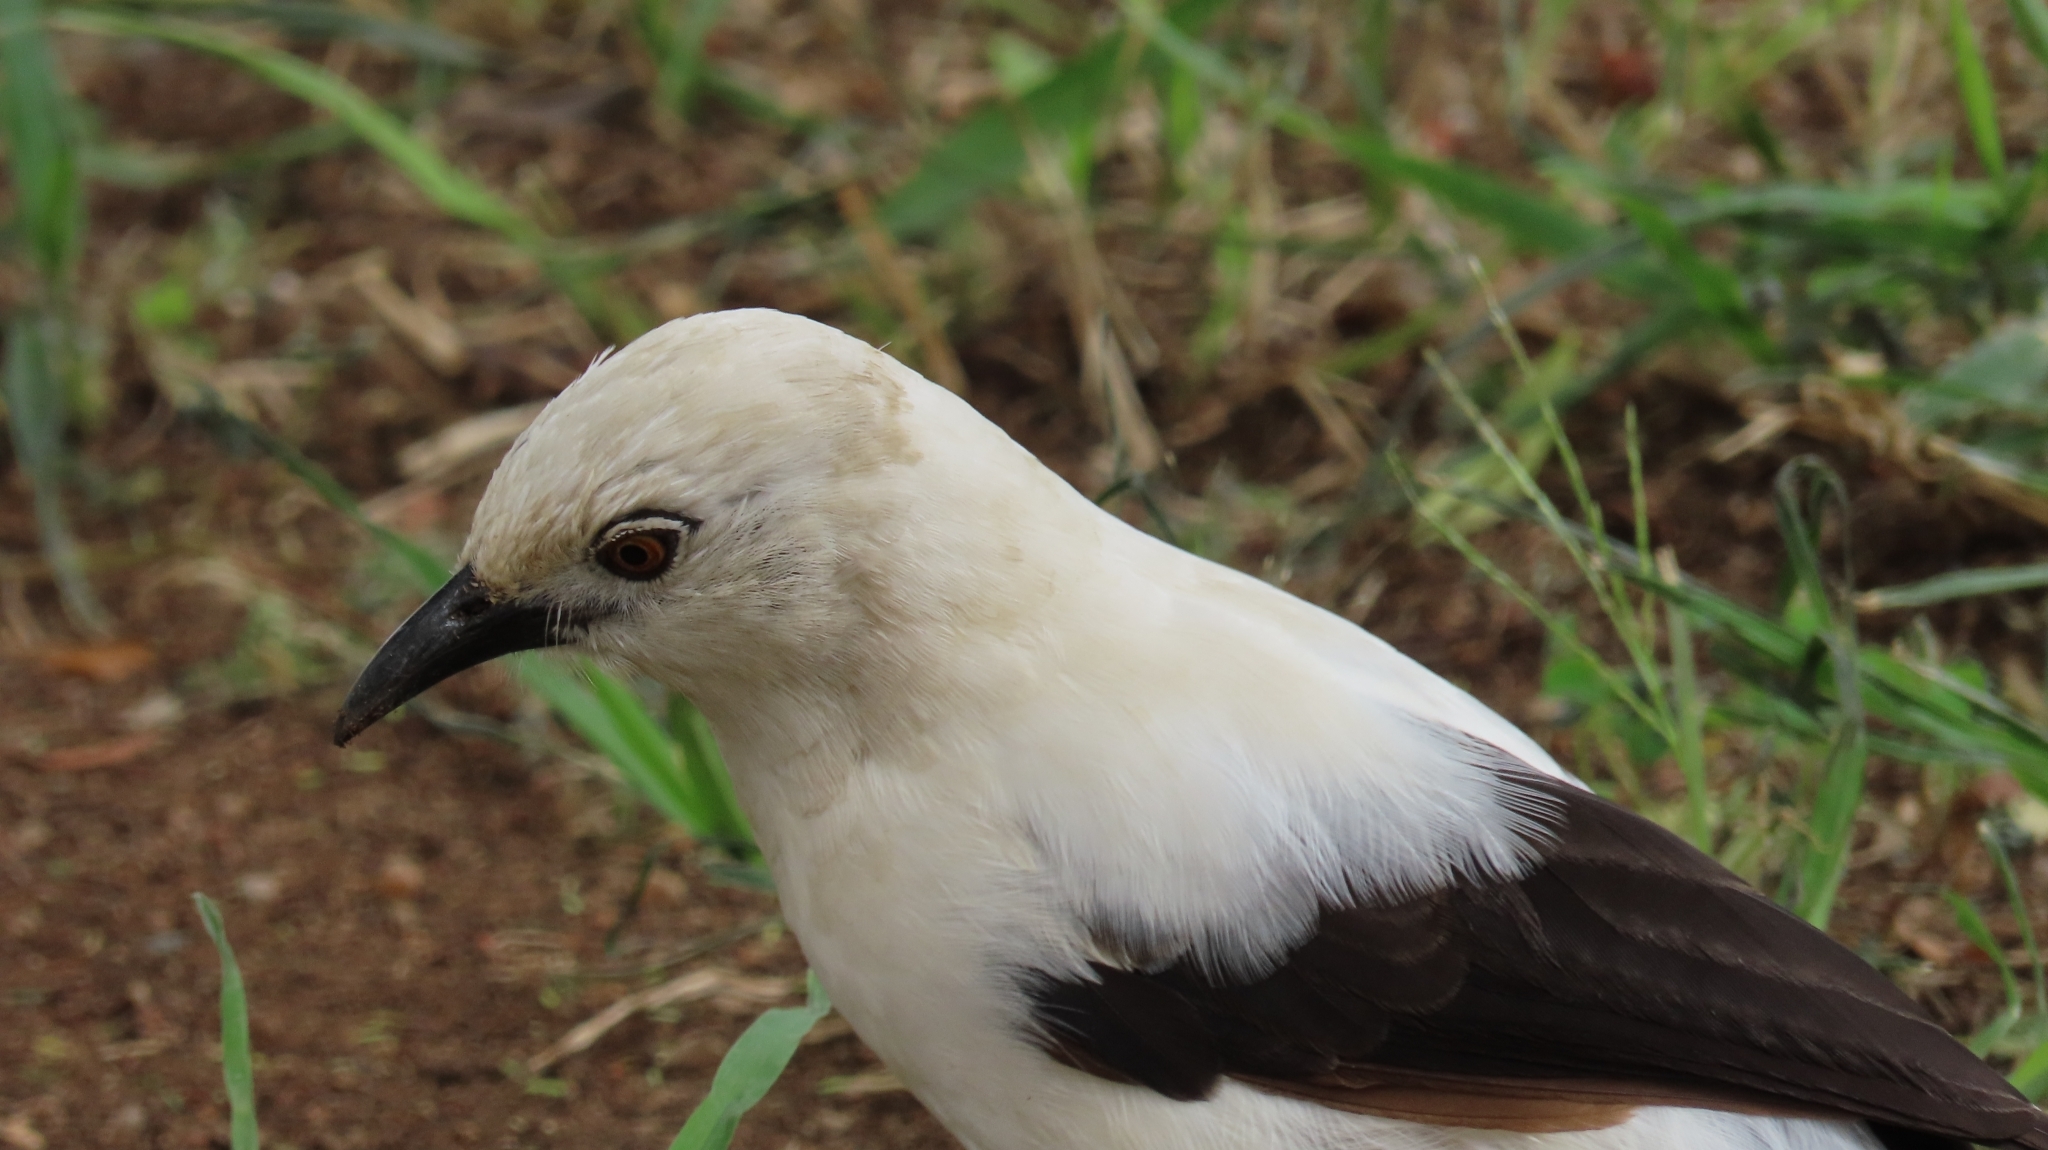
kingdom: Animalia
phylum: Chordata
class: Aves
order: Passeriformes
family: Leiothrichidae
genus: Turdoides
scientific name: Turdoides bicolor
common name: Southern pied babbler
